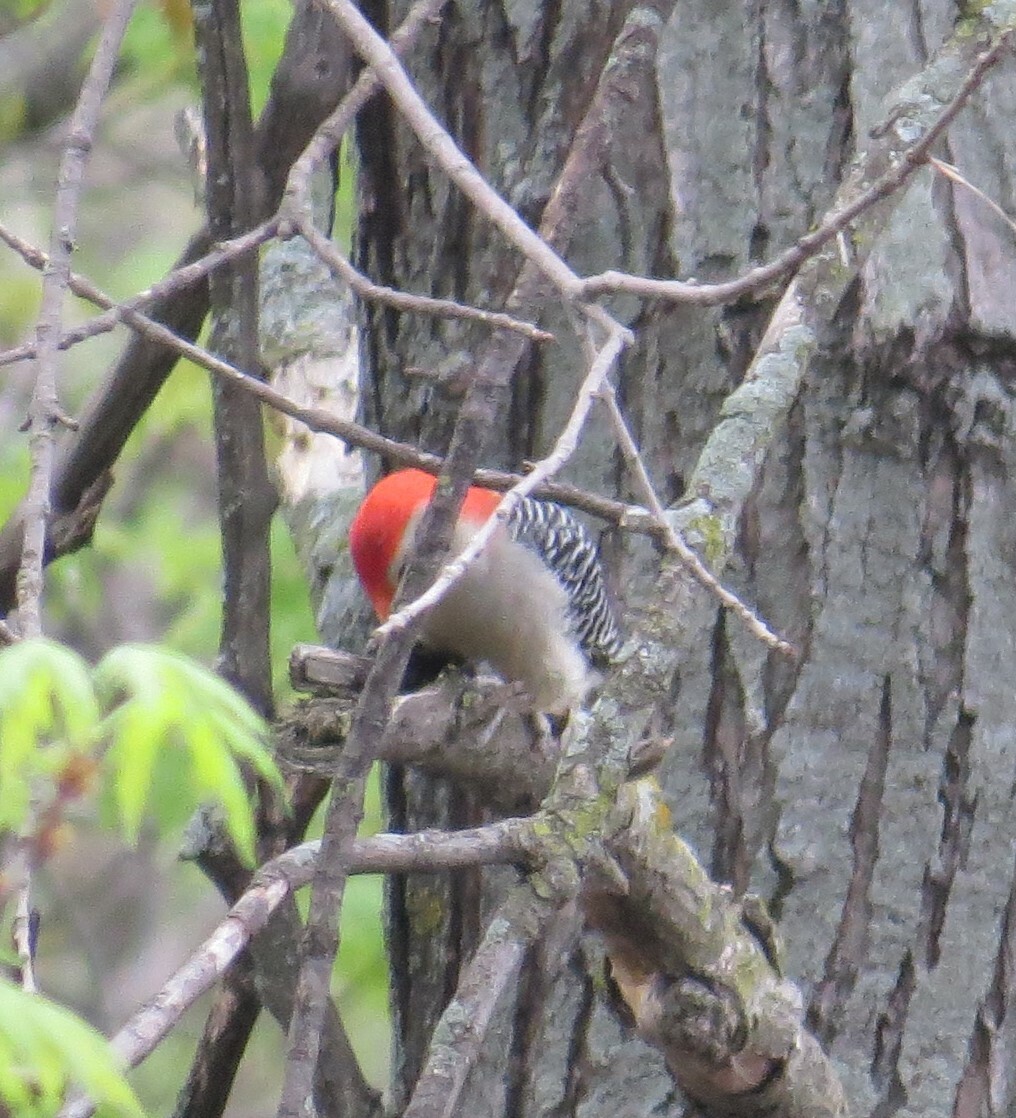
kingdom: Animalia
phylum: Chordata
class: Aves
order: Piciformes
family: Picidae
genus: Melanerpes
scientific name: Melanerpes carolinus
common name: Red-bellied woodpecker
